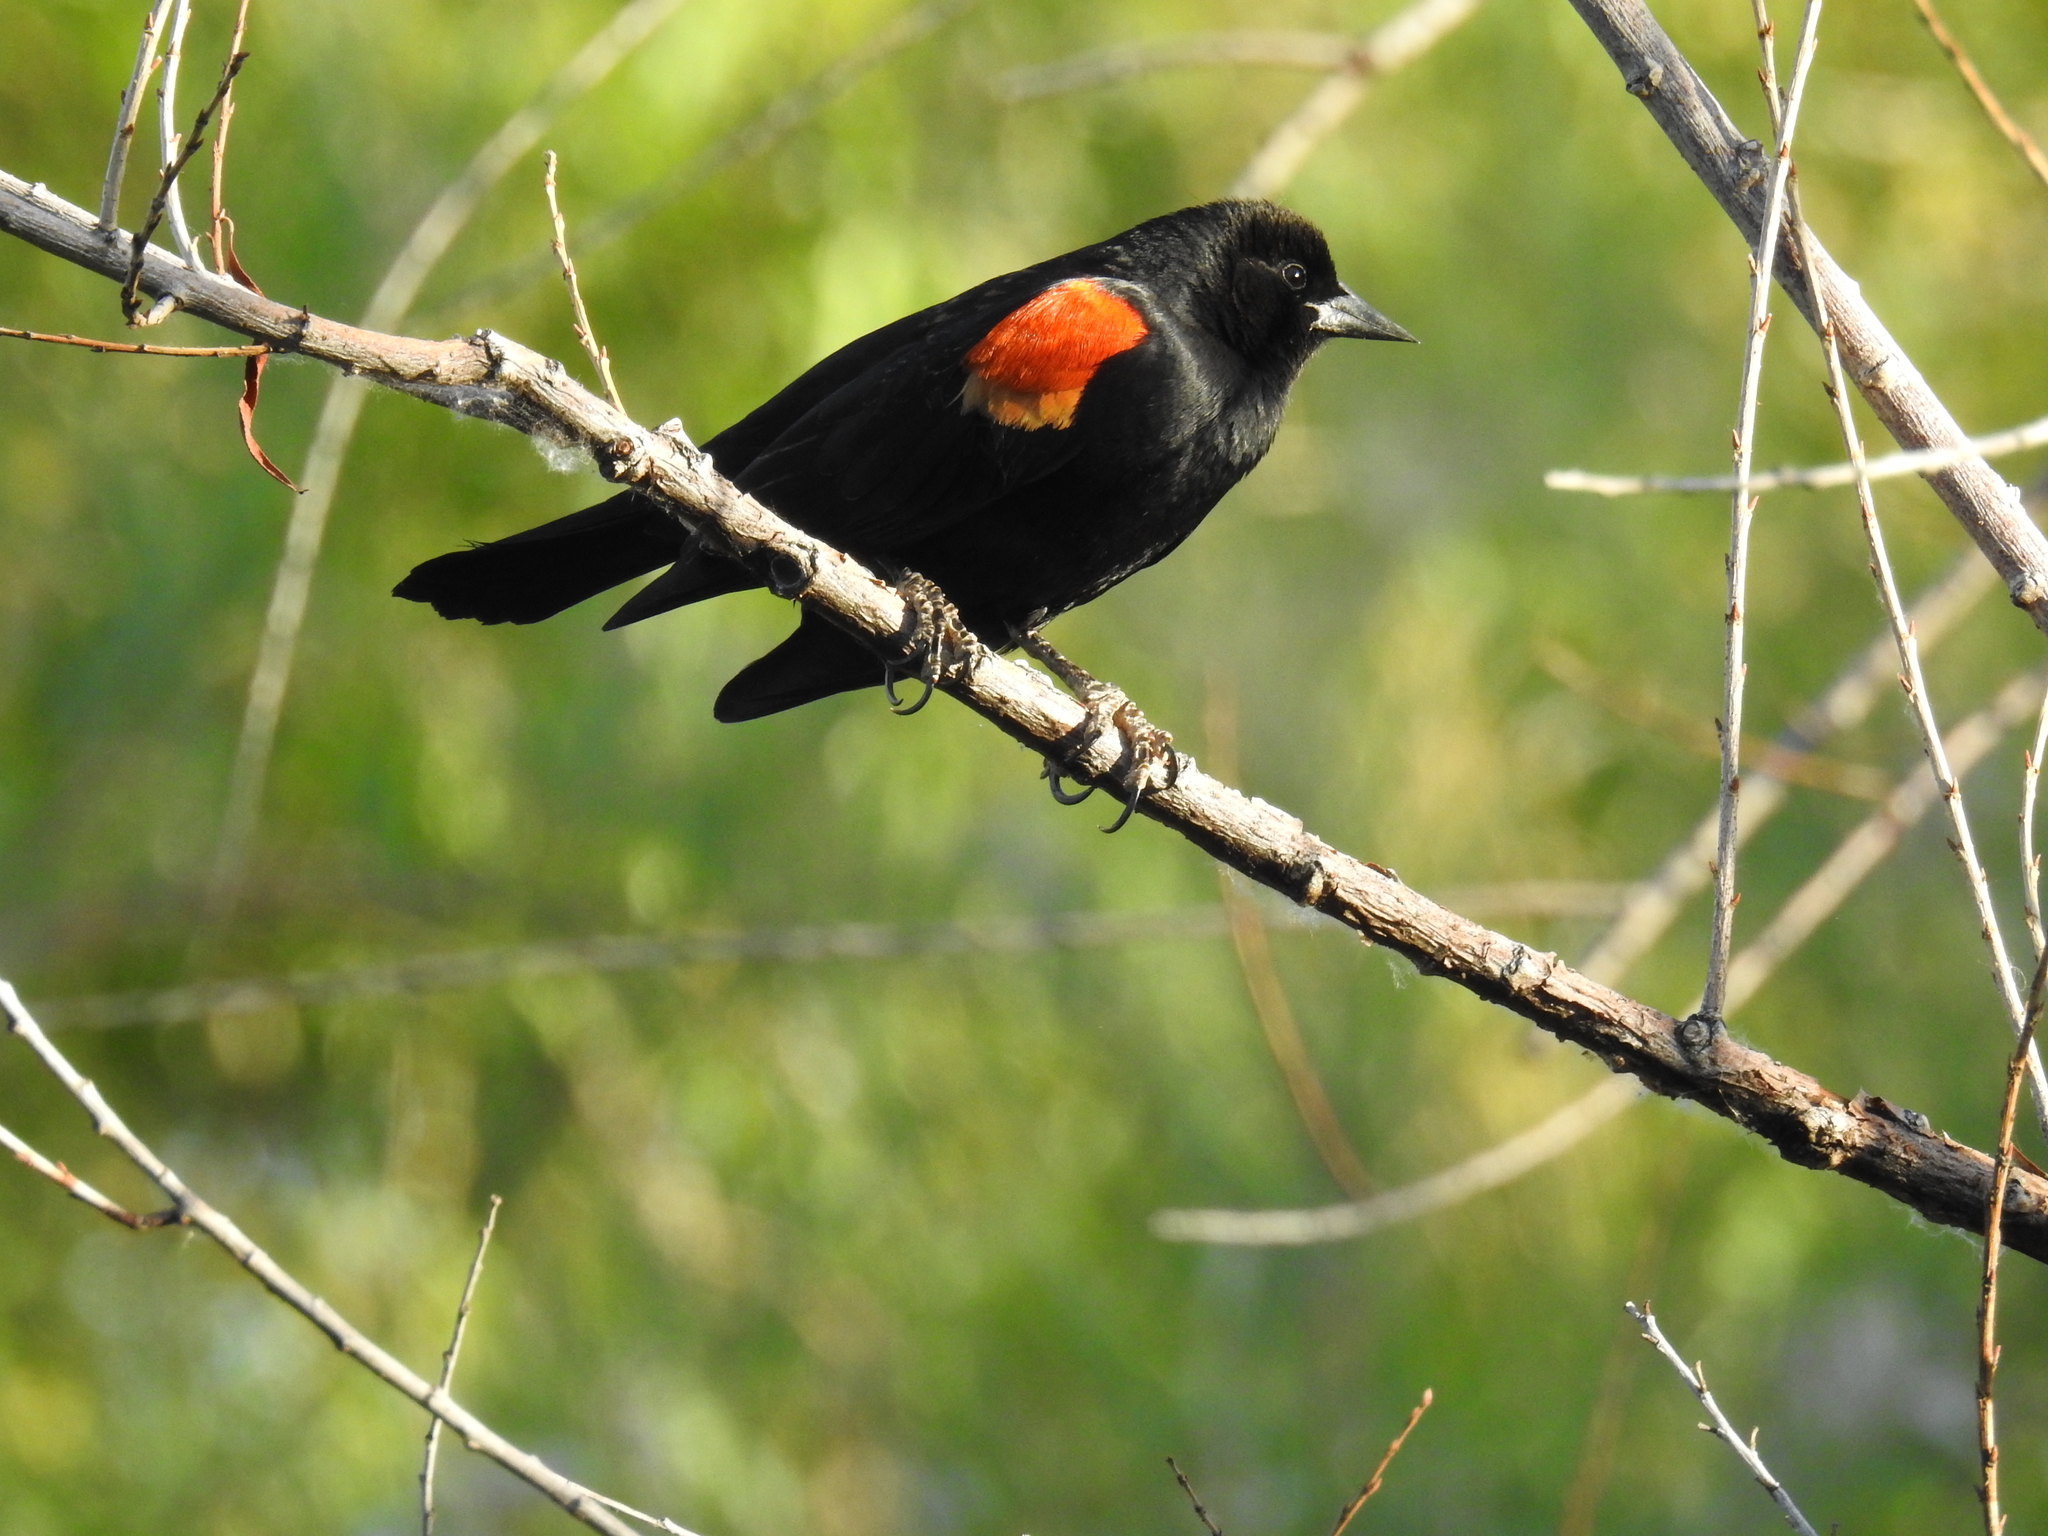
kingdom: Animalia
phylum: Chordata
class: Aves
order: Passeriformes
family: Icteridae
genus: Agelaius
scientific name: Agelaius phoeniceus
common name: Red-winged blackbird
